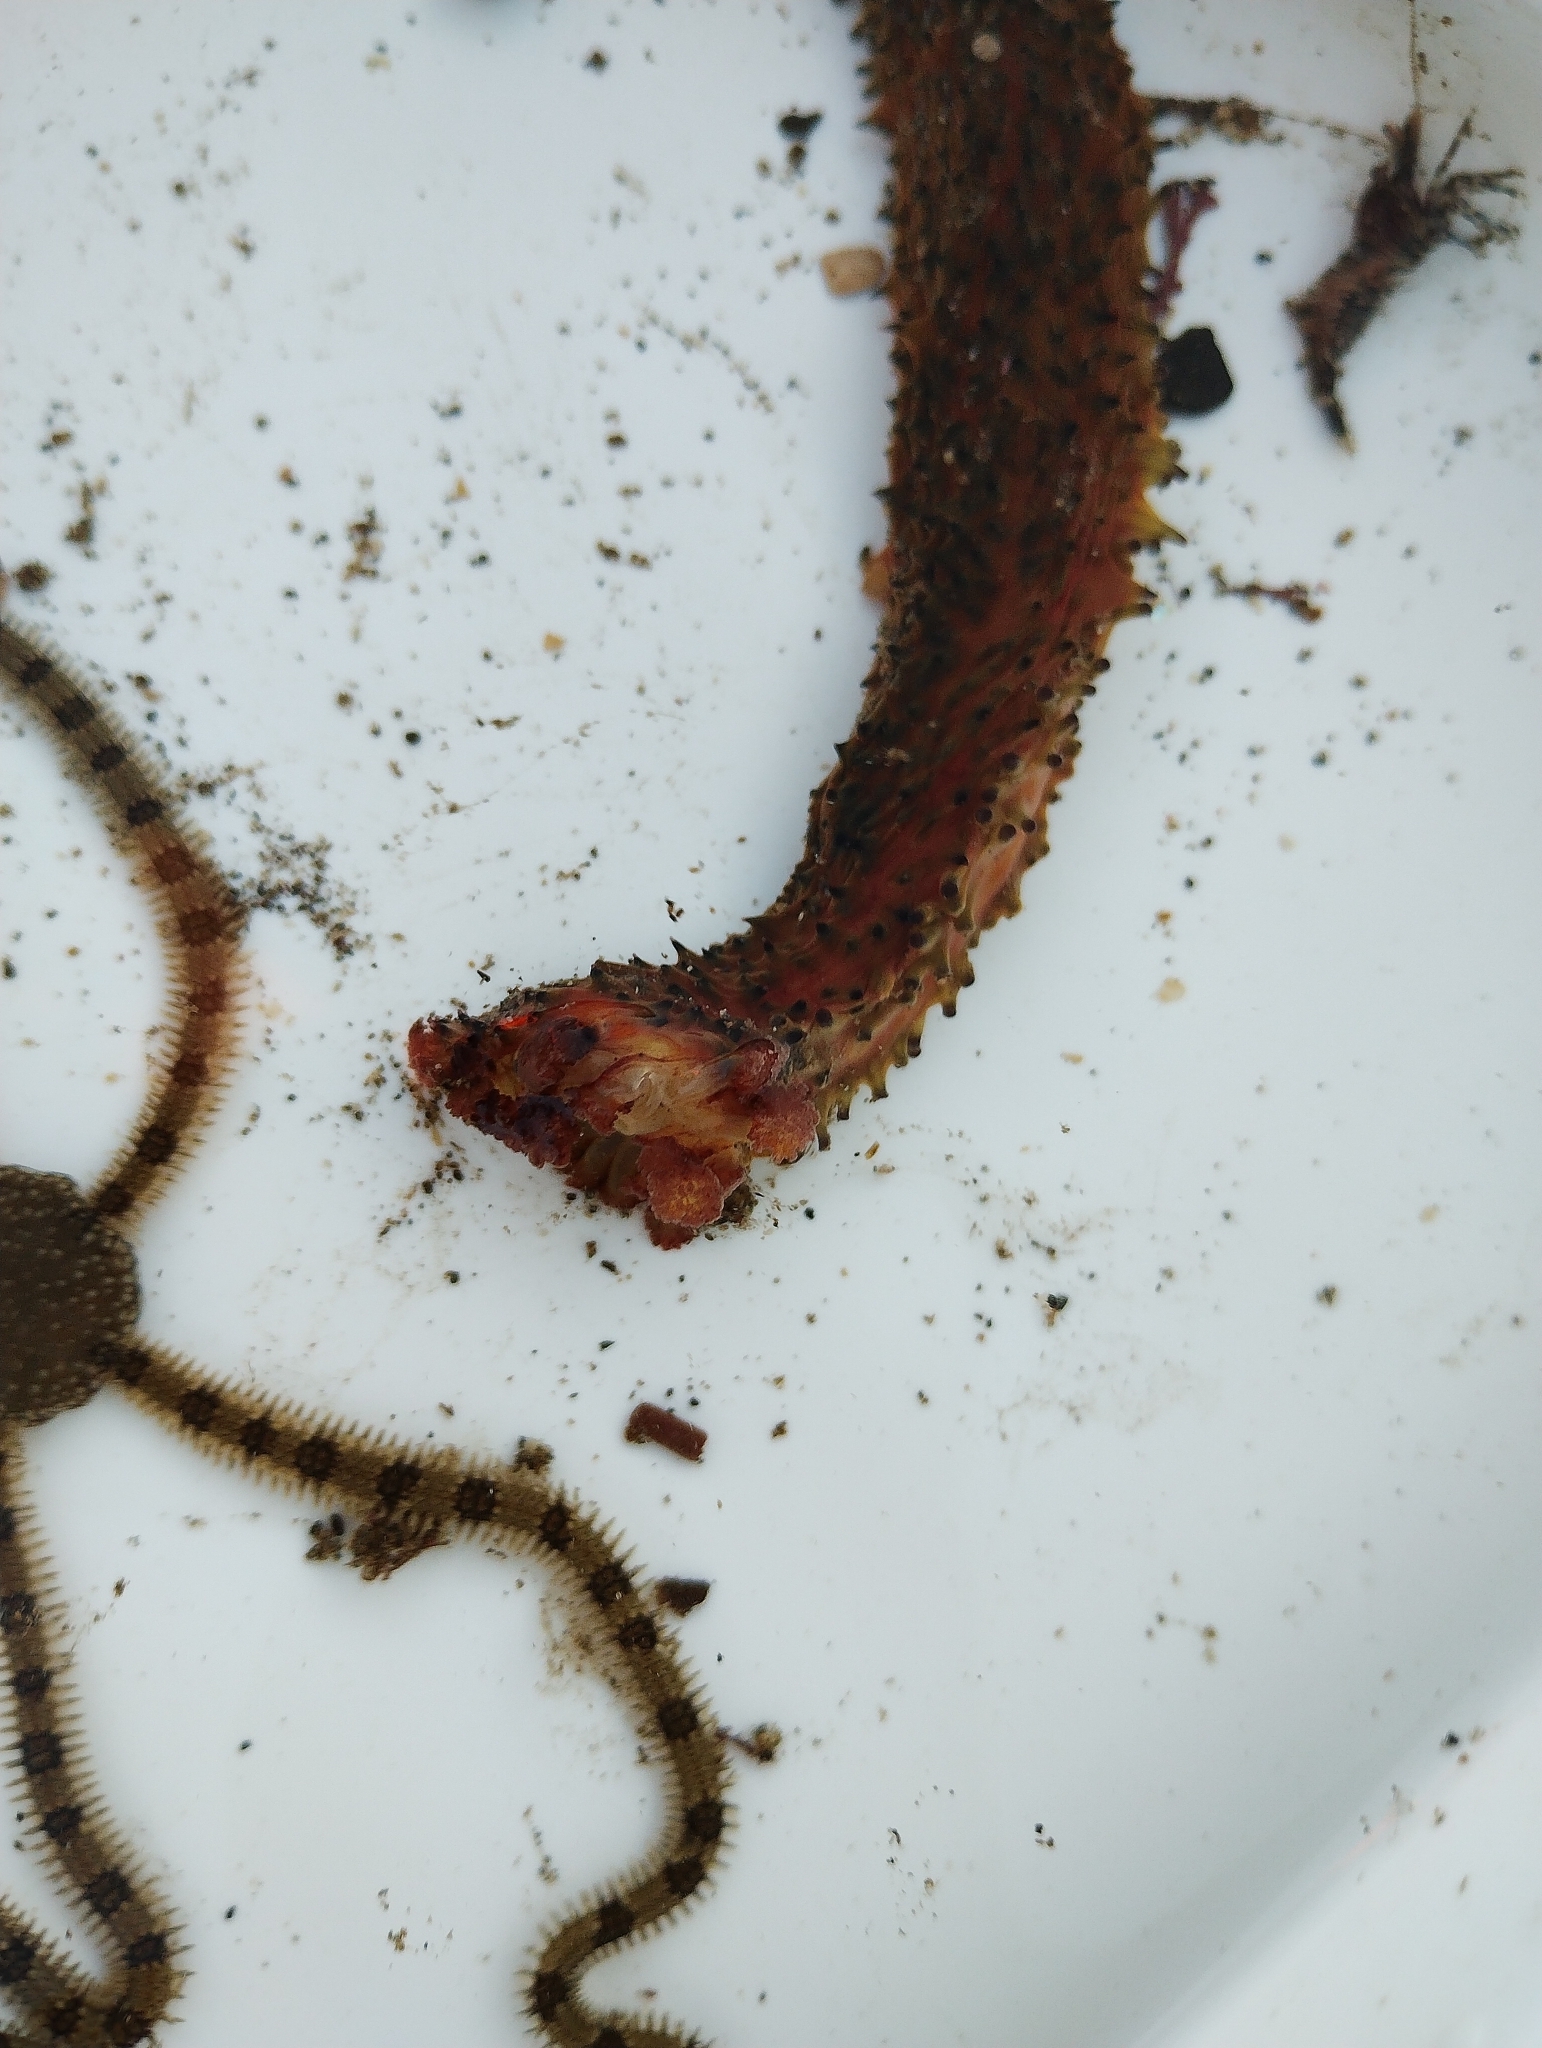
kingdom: Animalia
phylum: Echinodermata
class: Holothuroidea
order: Synallactida
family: Stichopodidae
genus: Apostichopus
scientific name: Apostichopus parvimensis
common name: Warty sea cucumber
